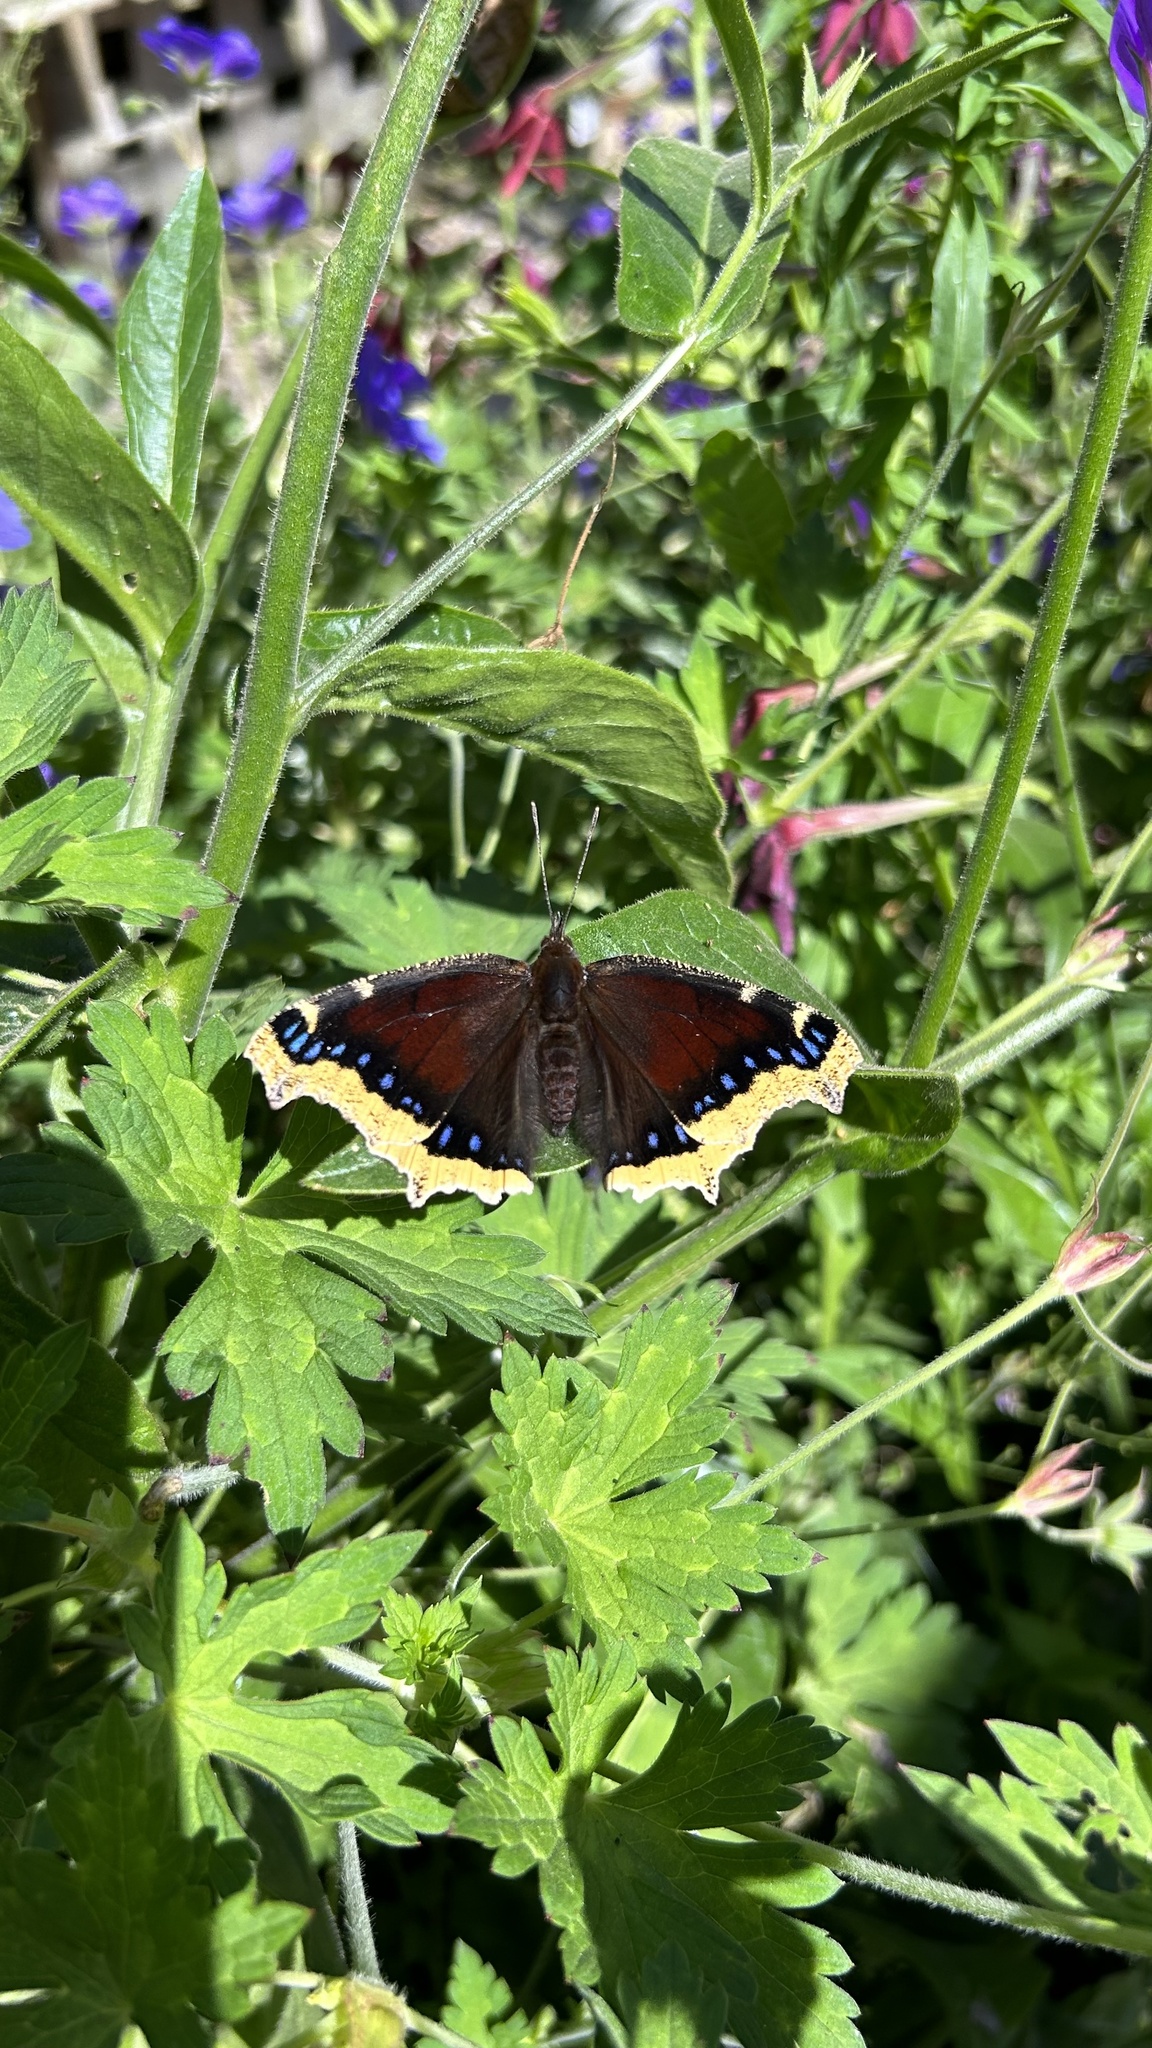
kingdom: Animalia
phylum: Arthropoda
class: Insecta
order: Lepidoptera
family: Nymphalidae
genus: Nymphalis
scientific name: Nymphalis antiopa
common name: Camberwell beauty
